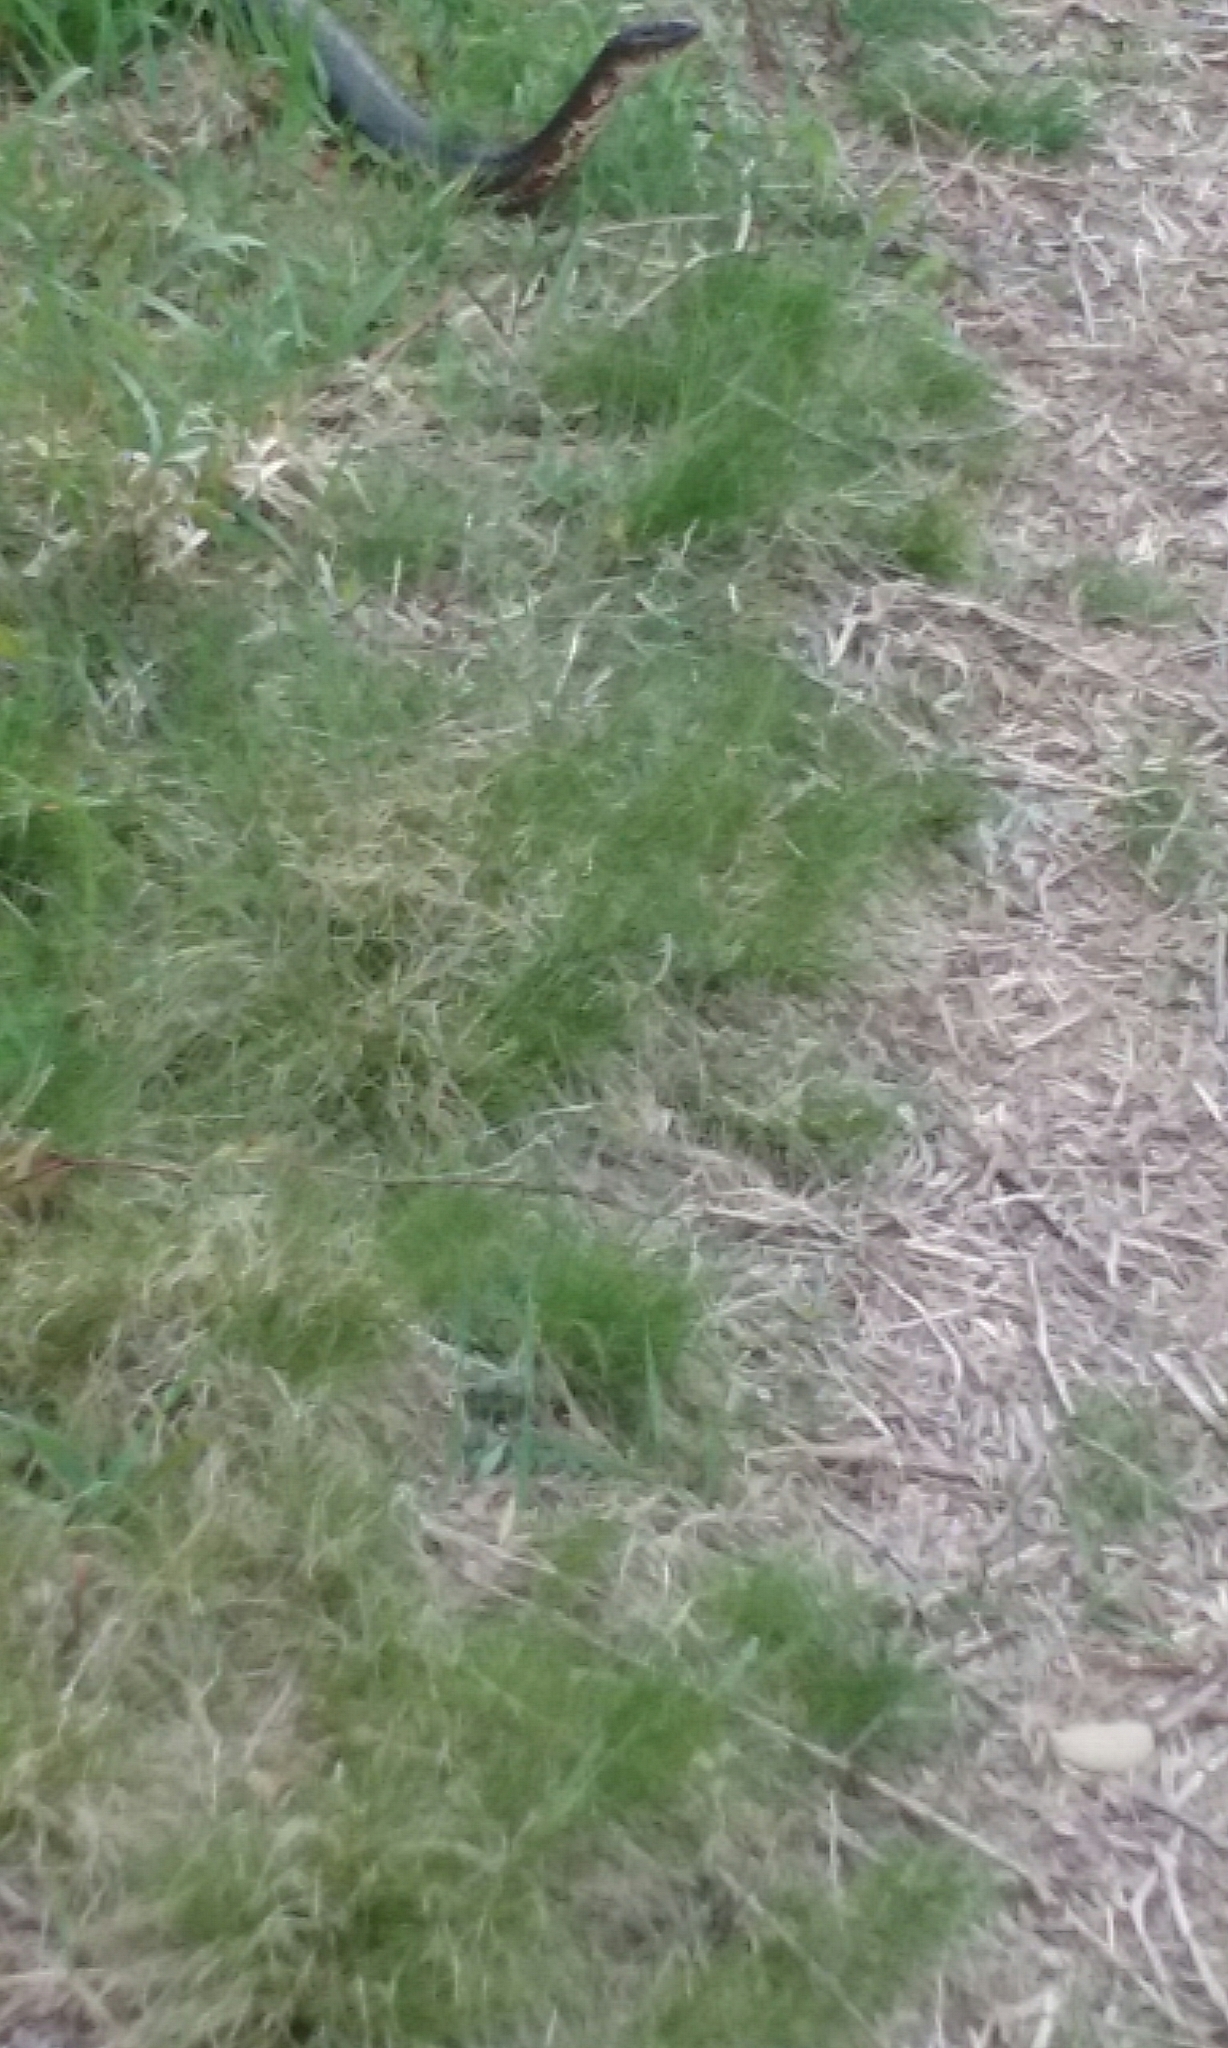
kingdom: Animalia
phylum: Chordata
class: Squamata
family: Colubridae
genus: Nerodia
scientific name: Nerodia sipedon
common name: Northern water snake
